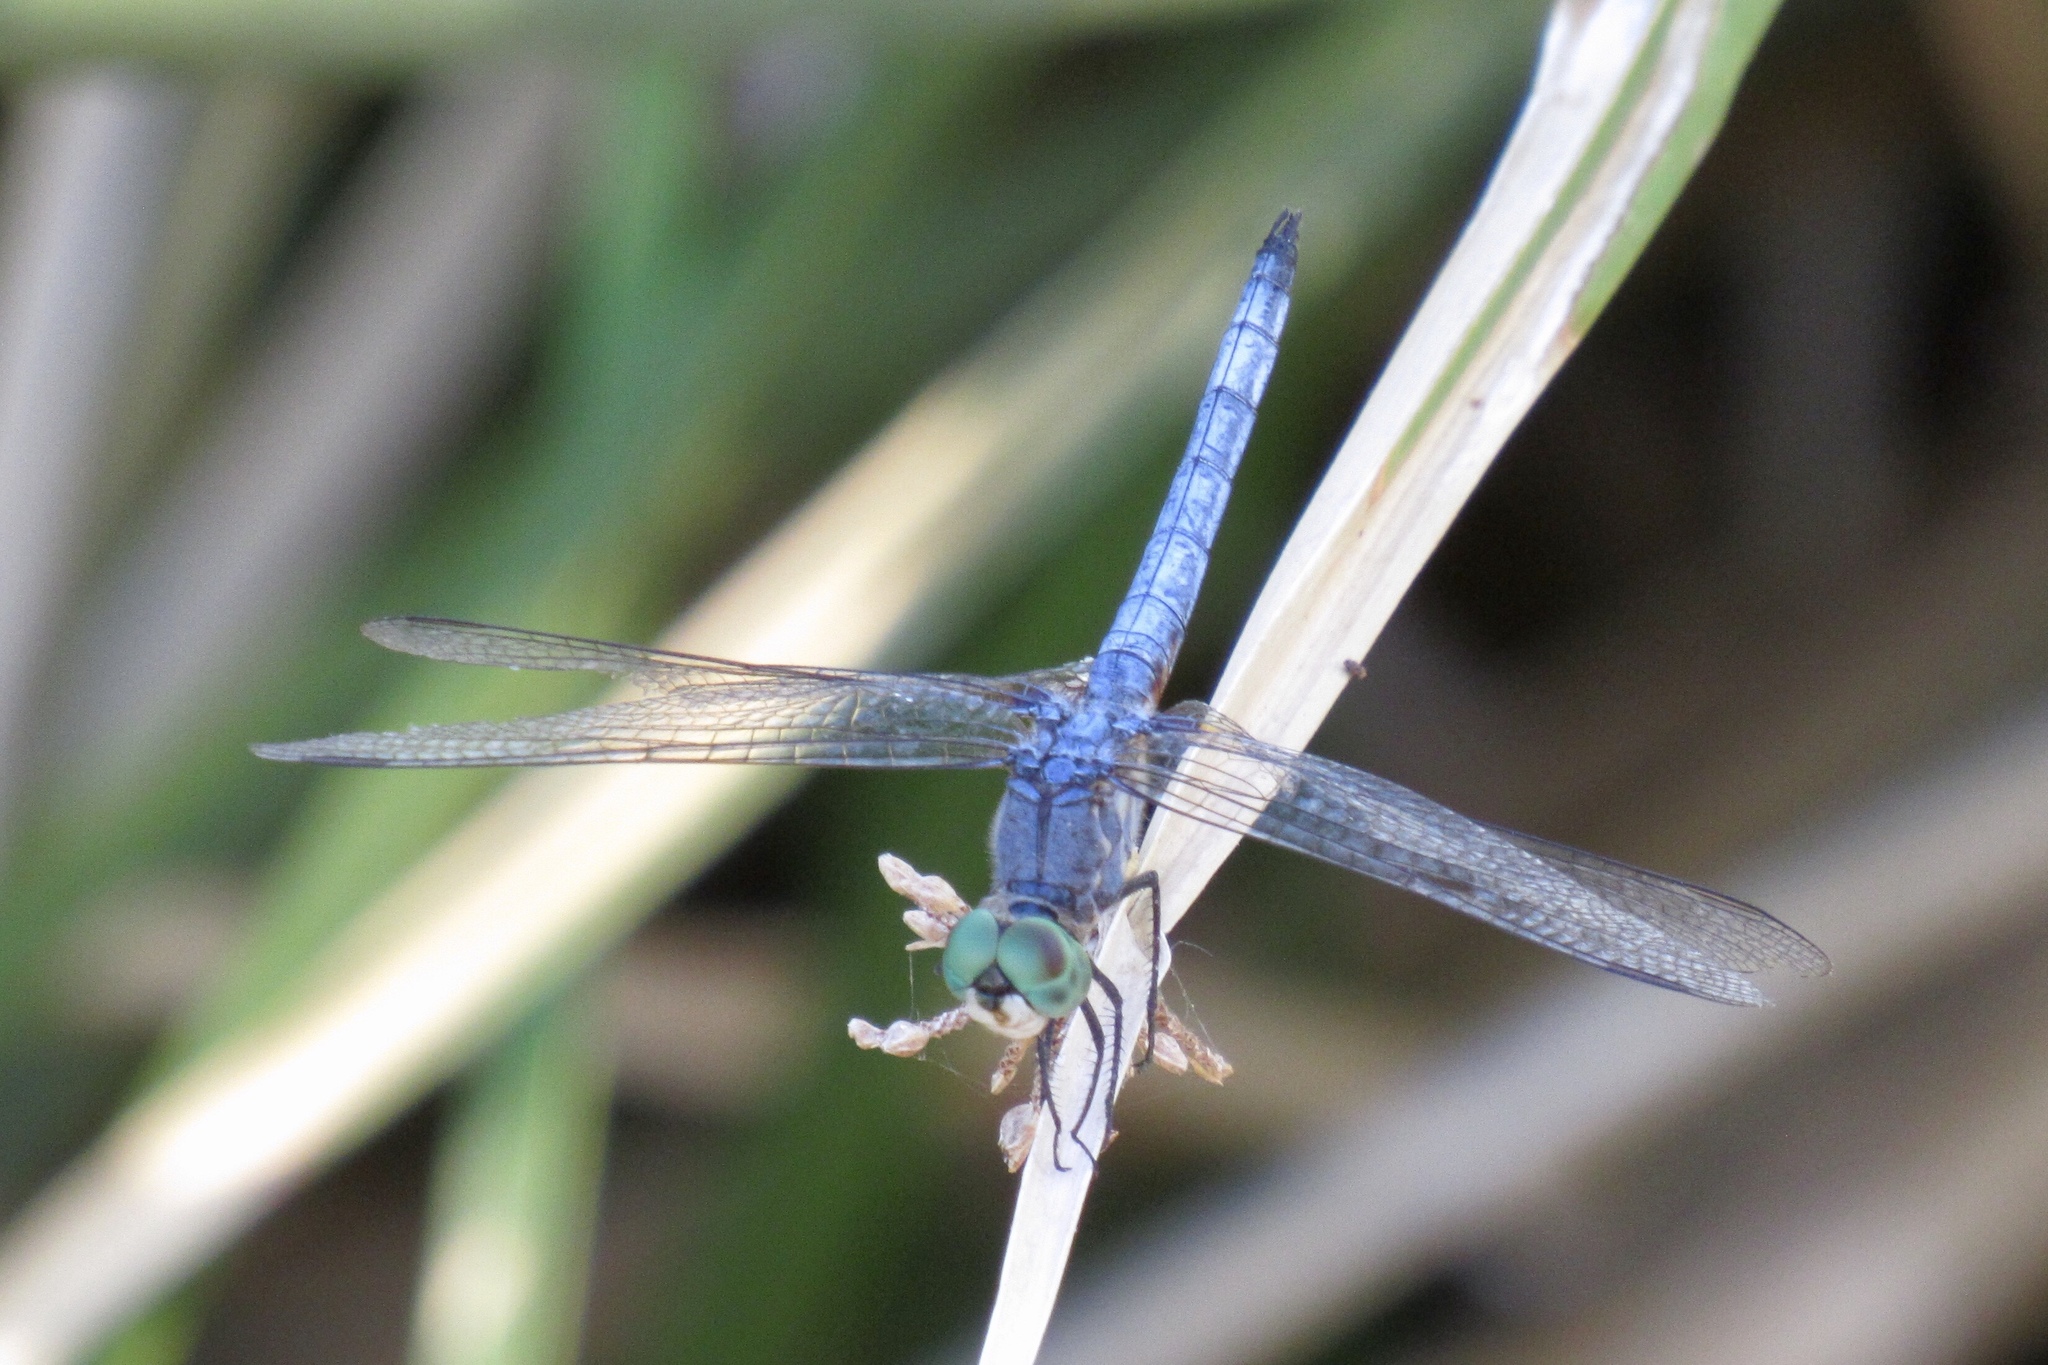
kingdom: Animalia
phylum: Arthropoda
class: Insecta
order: Odonata
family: Libellulidae
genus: Pachydiplax
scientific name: Pachydiplax longipennis
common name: Blue dasher
